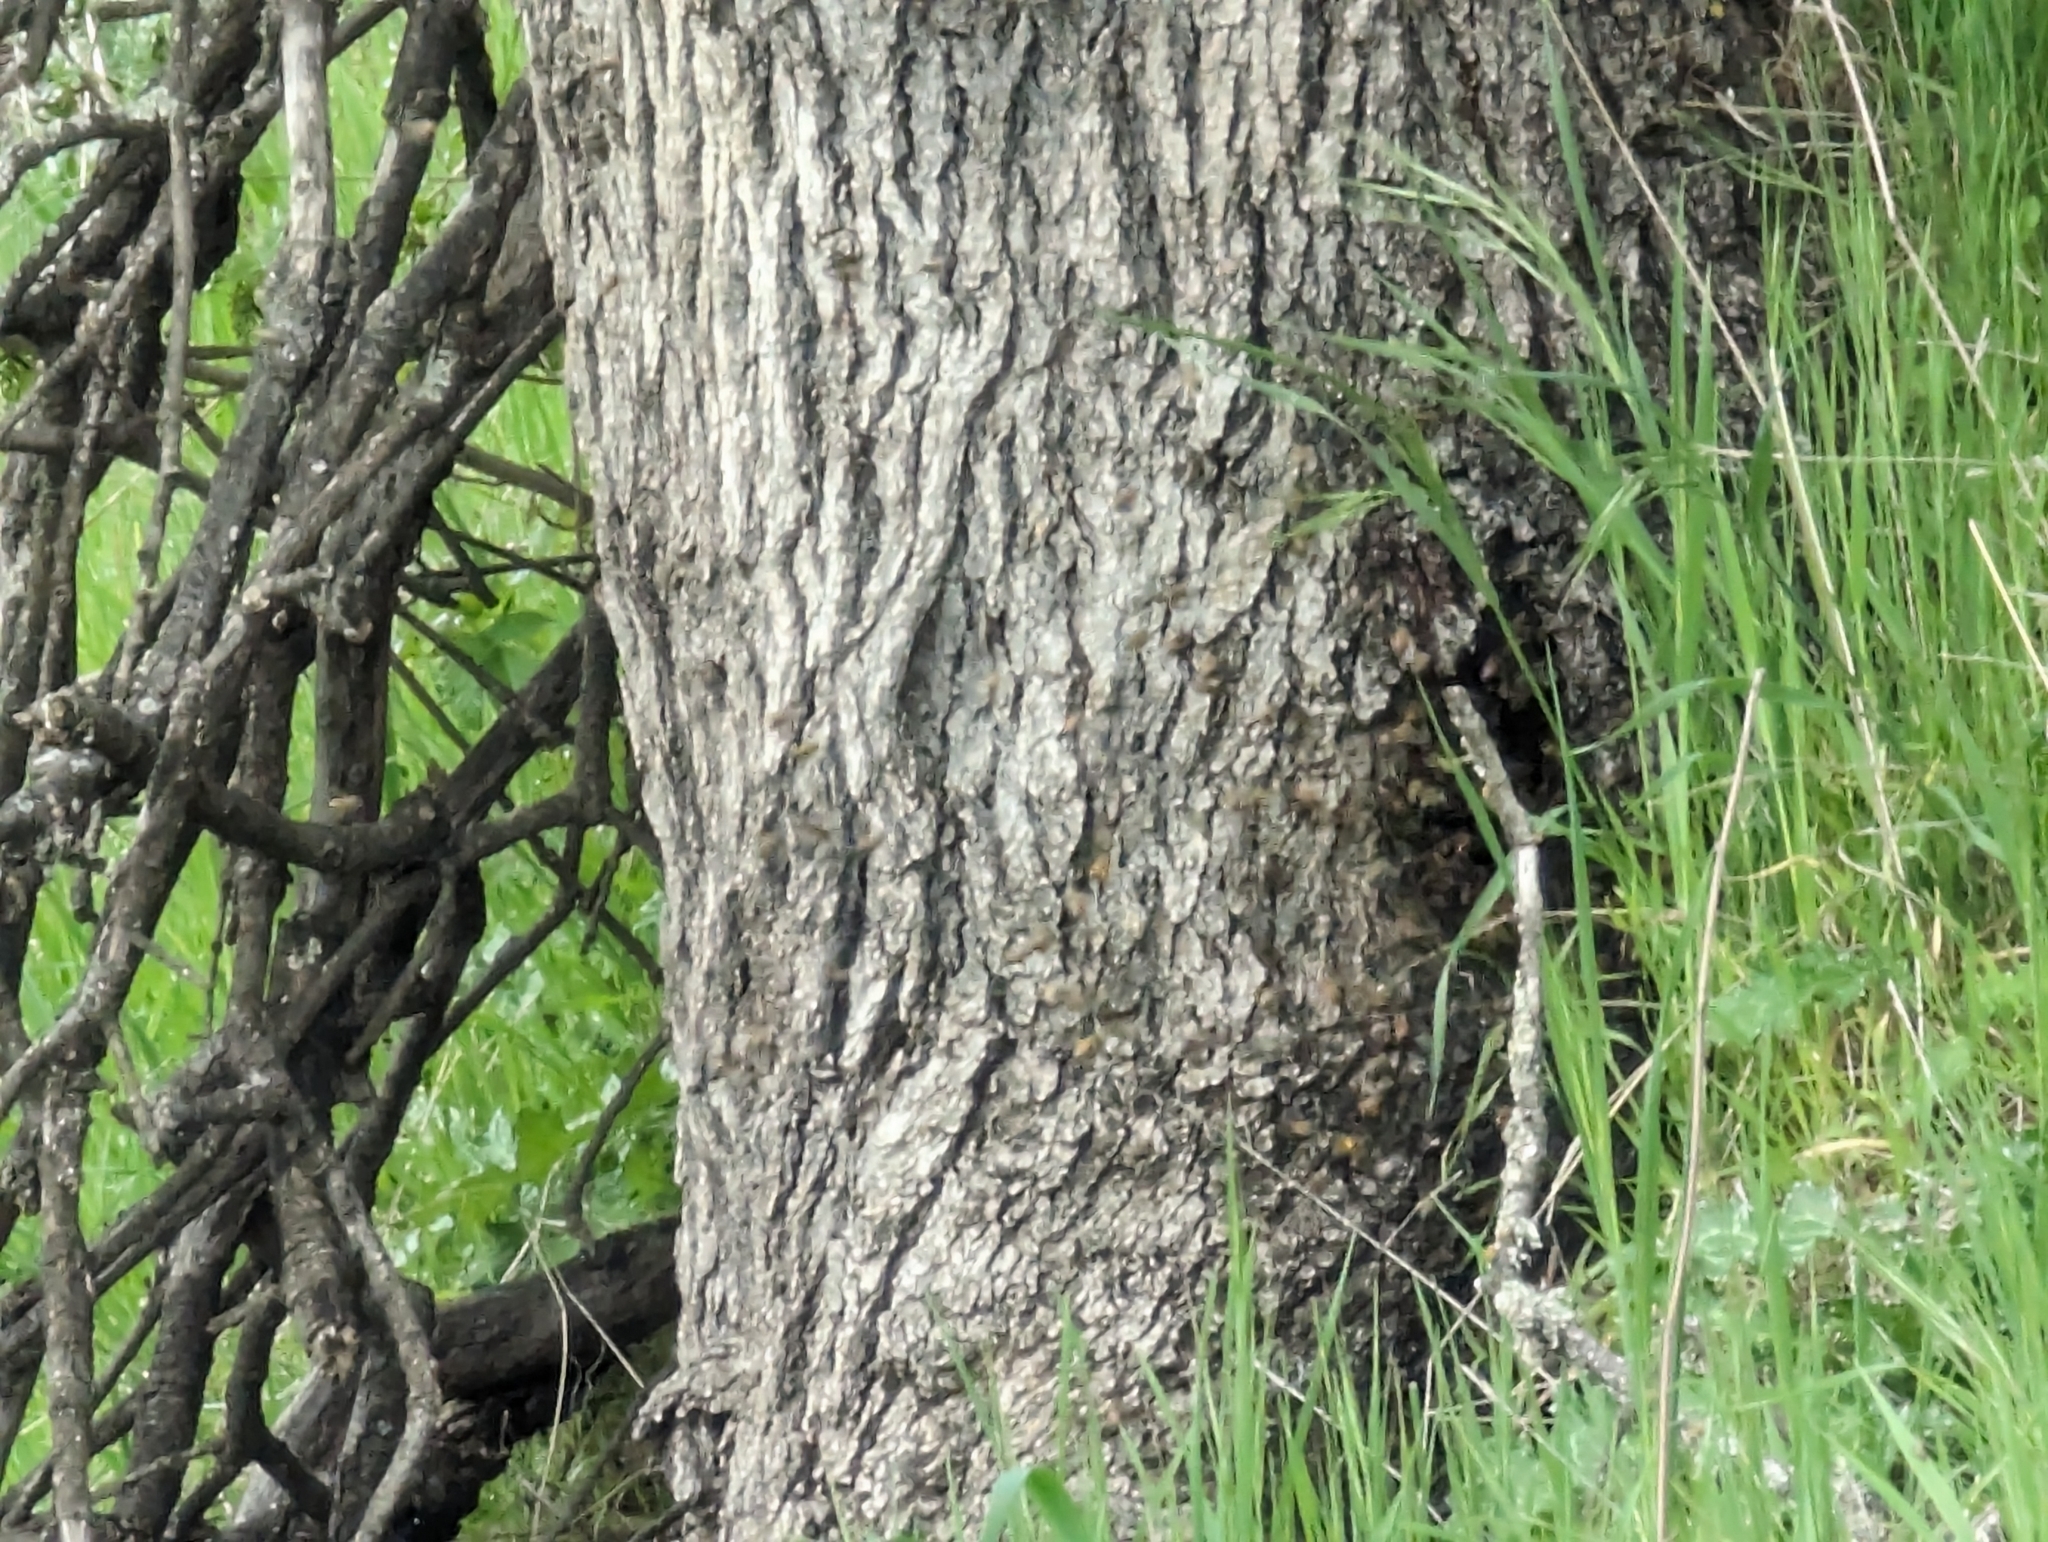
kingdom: Animalia
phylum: Arthropoda
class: Insecta
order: Hymenoptera
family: Apidae
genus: Apis
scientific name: Apis mellifera
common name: Honey bee
